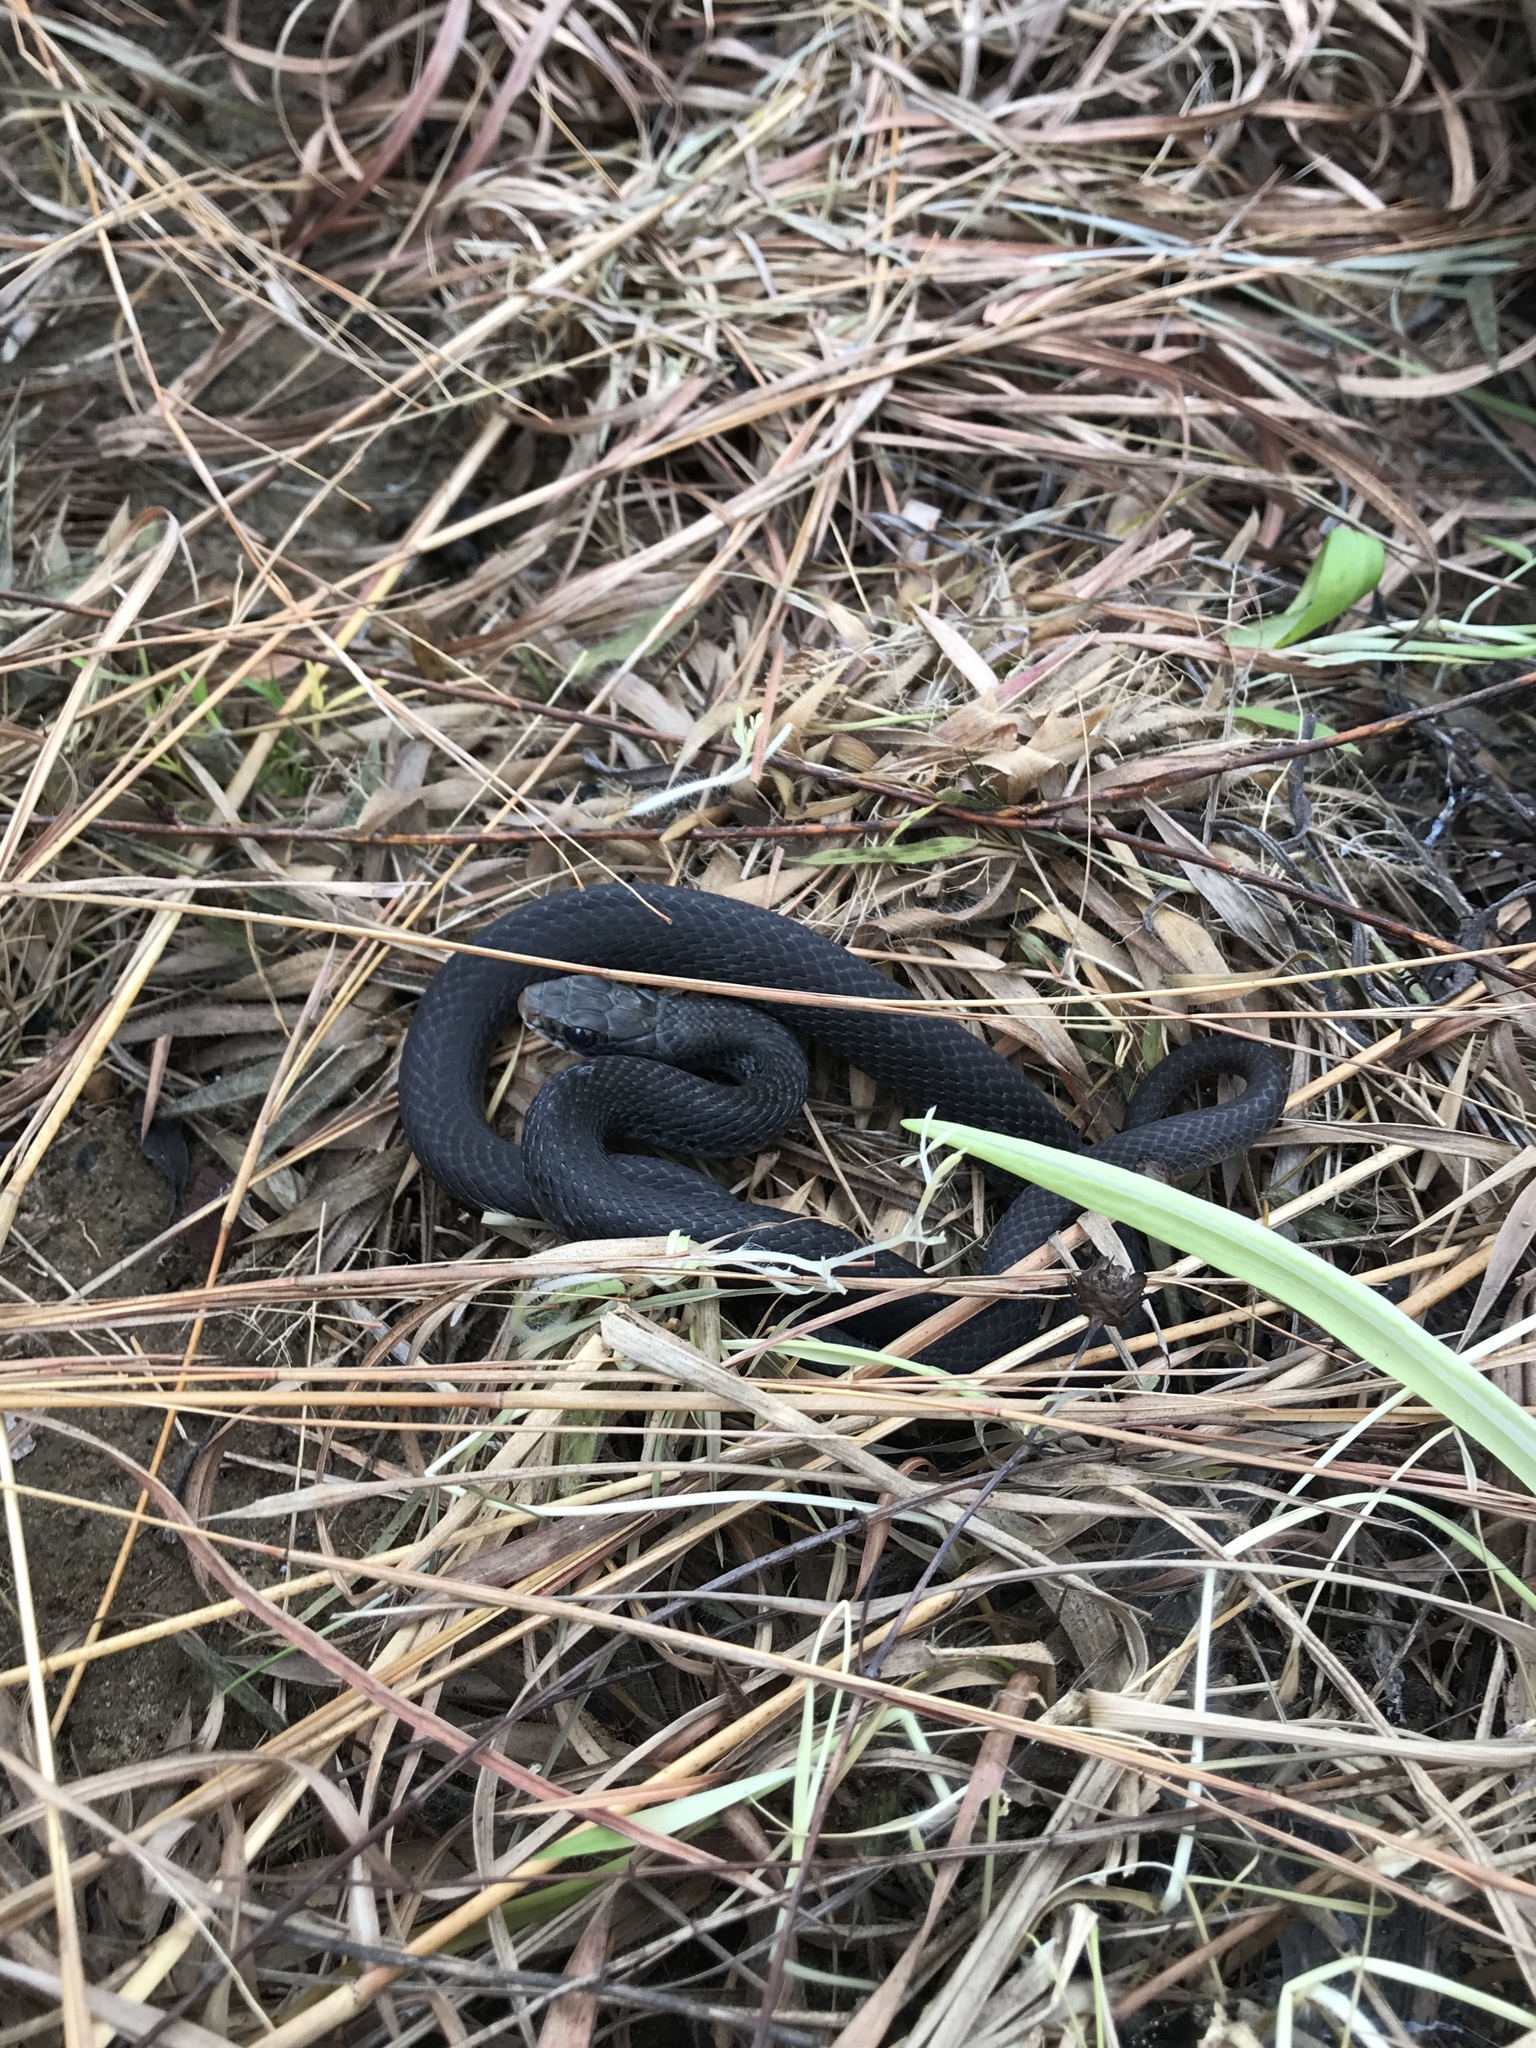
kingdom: Animalia
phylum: Chordata
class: Squamata
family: Colubridae
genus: Coluber
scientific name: Coluber constrictor
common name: Eastern racer
